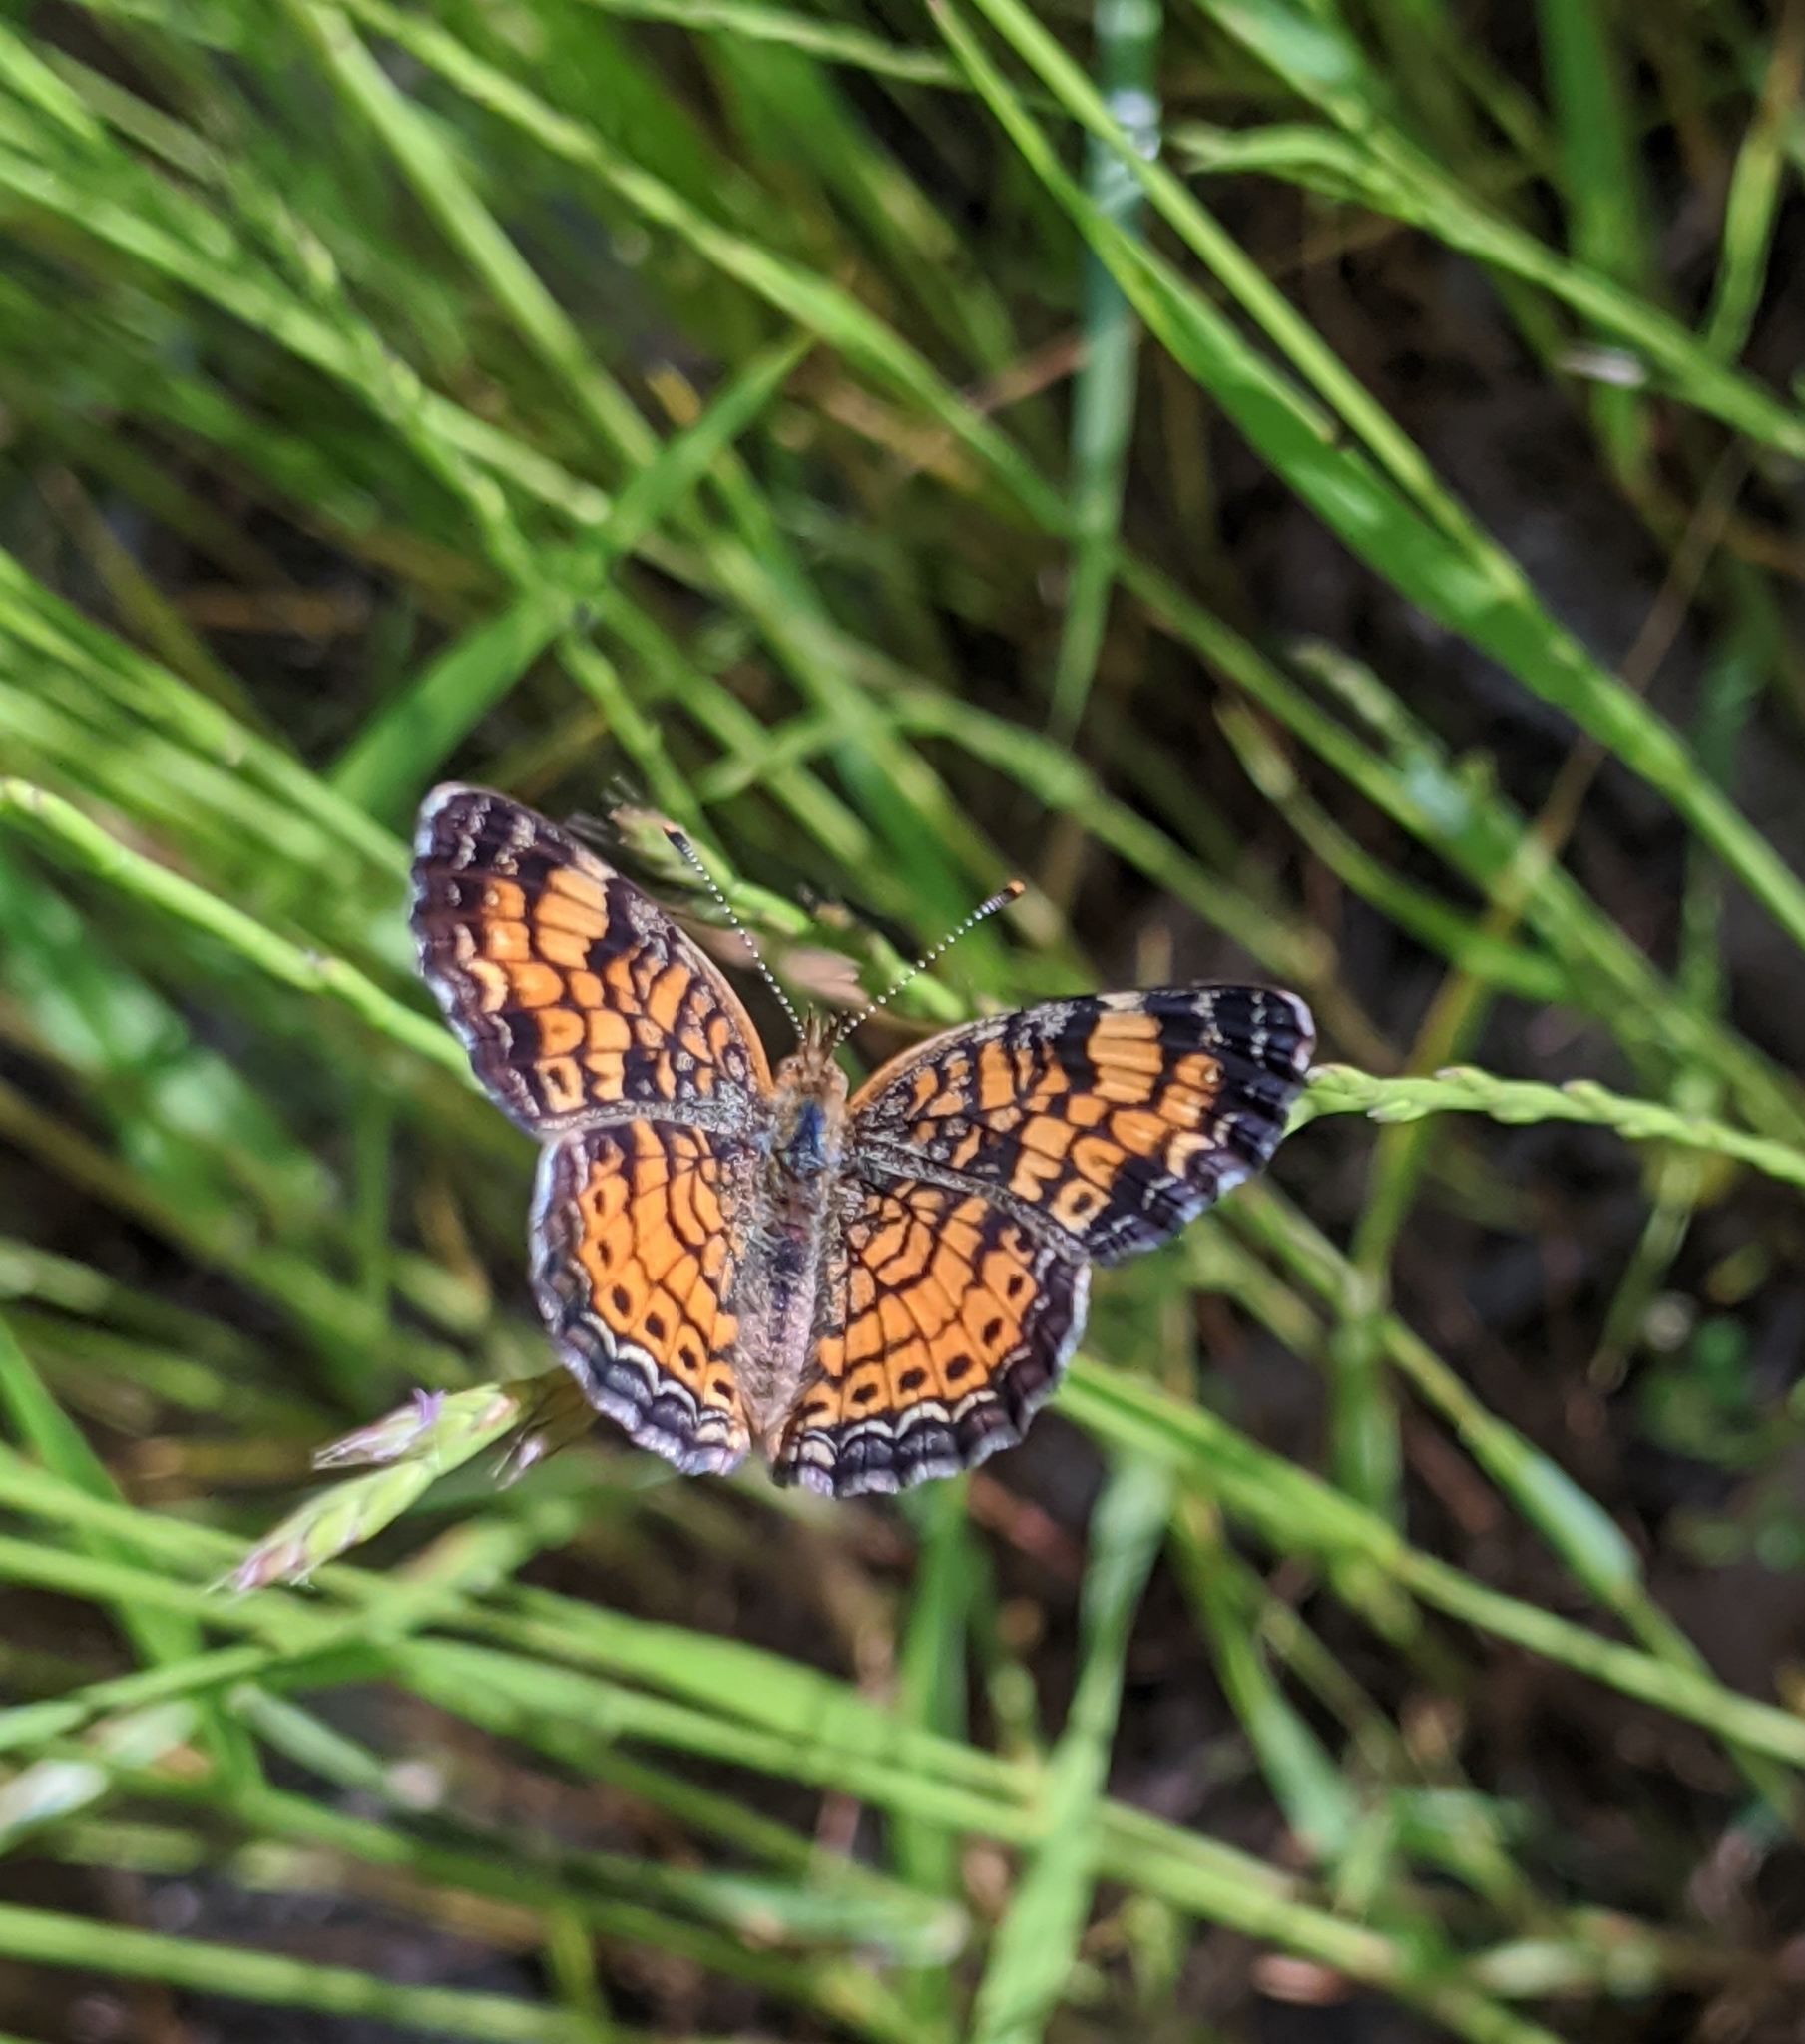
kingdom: Animalia
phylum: Arthropoda
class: Insecta
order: Lepidoptera
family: Nymphalidae
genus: Phyciodes
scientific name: Phyciodes tharos
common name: Pearl crescent
